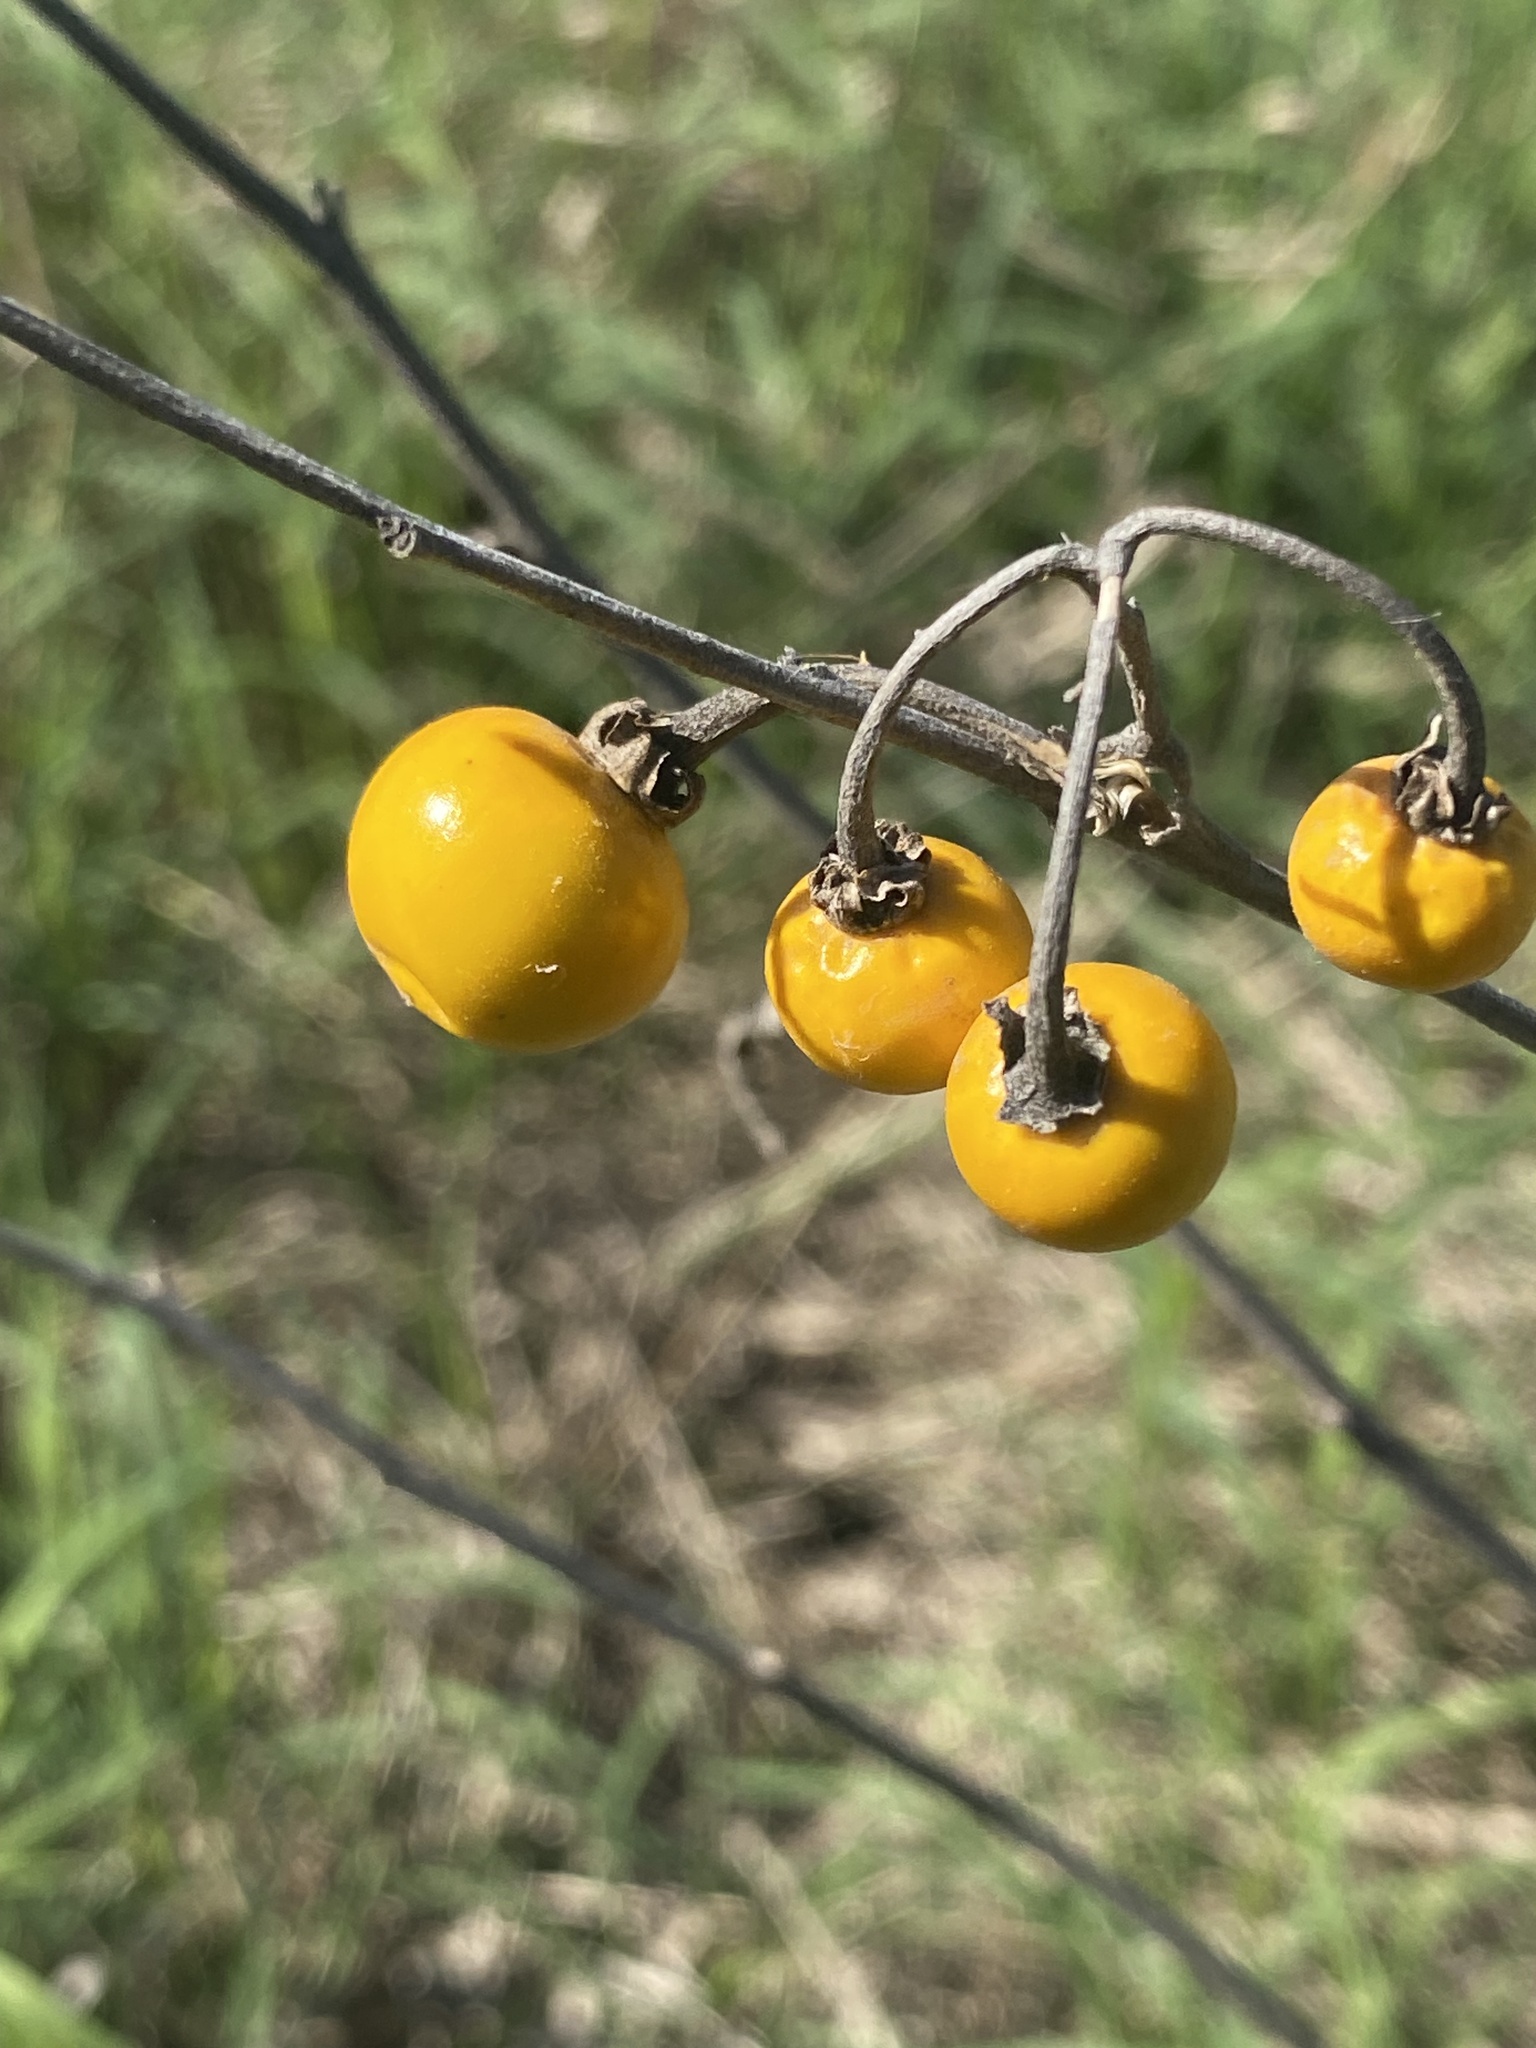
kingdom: Plantae
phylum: Tracheophyta
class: Magnoliopsida
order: Solanales
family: Solanaceae
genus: Solanum
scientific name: Solanum elaeagnifolium
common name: Silverleaf nightshade
